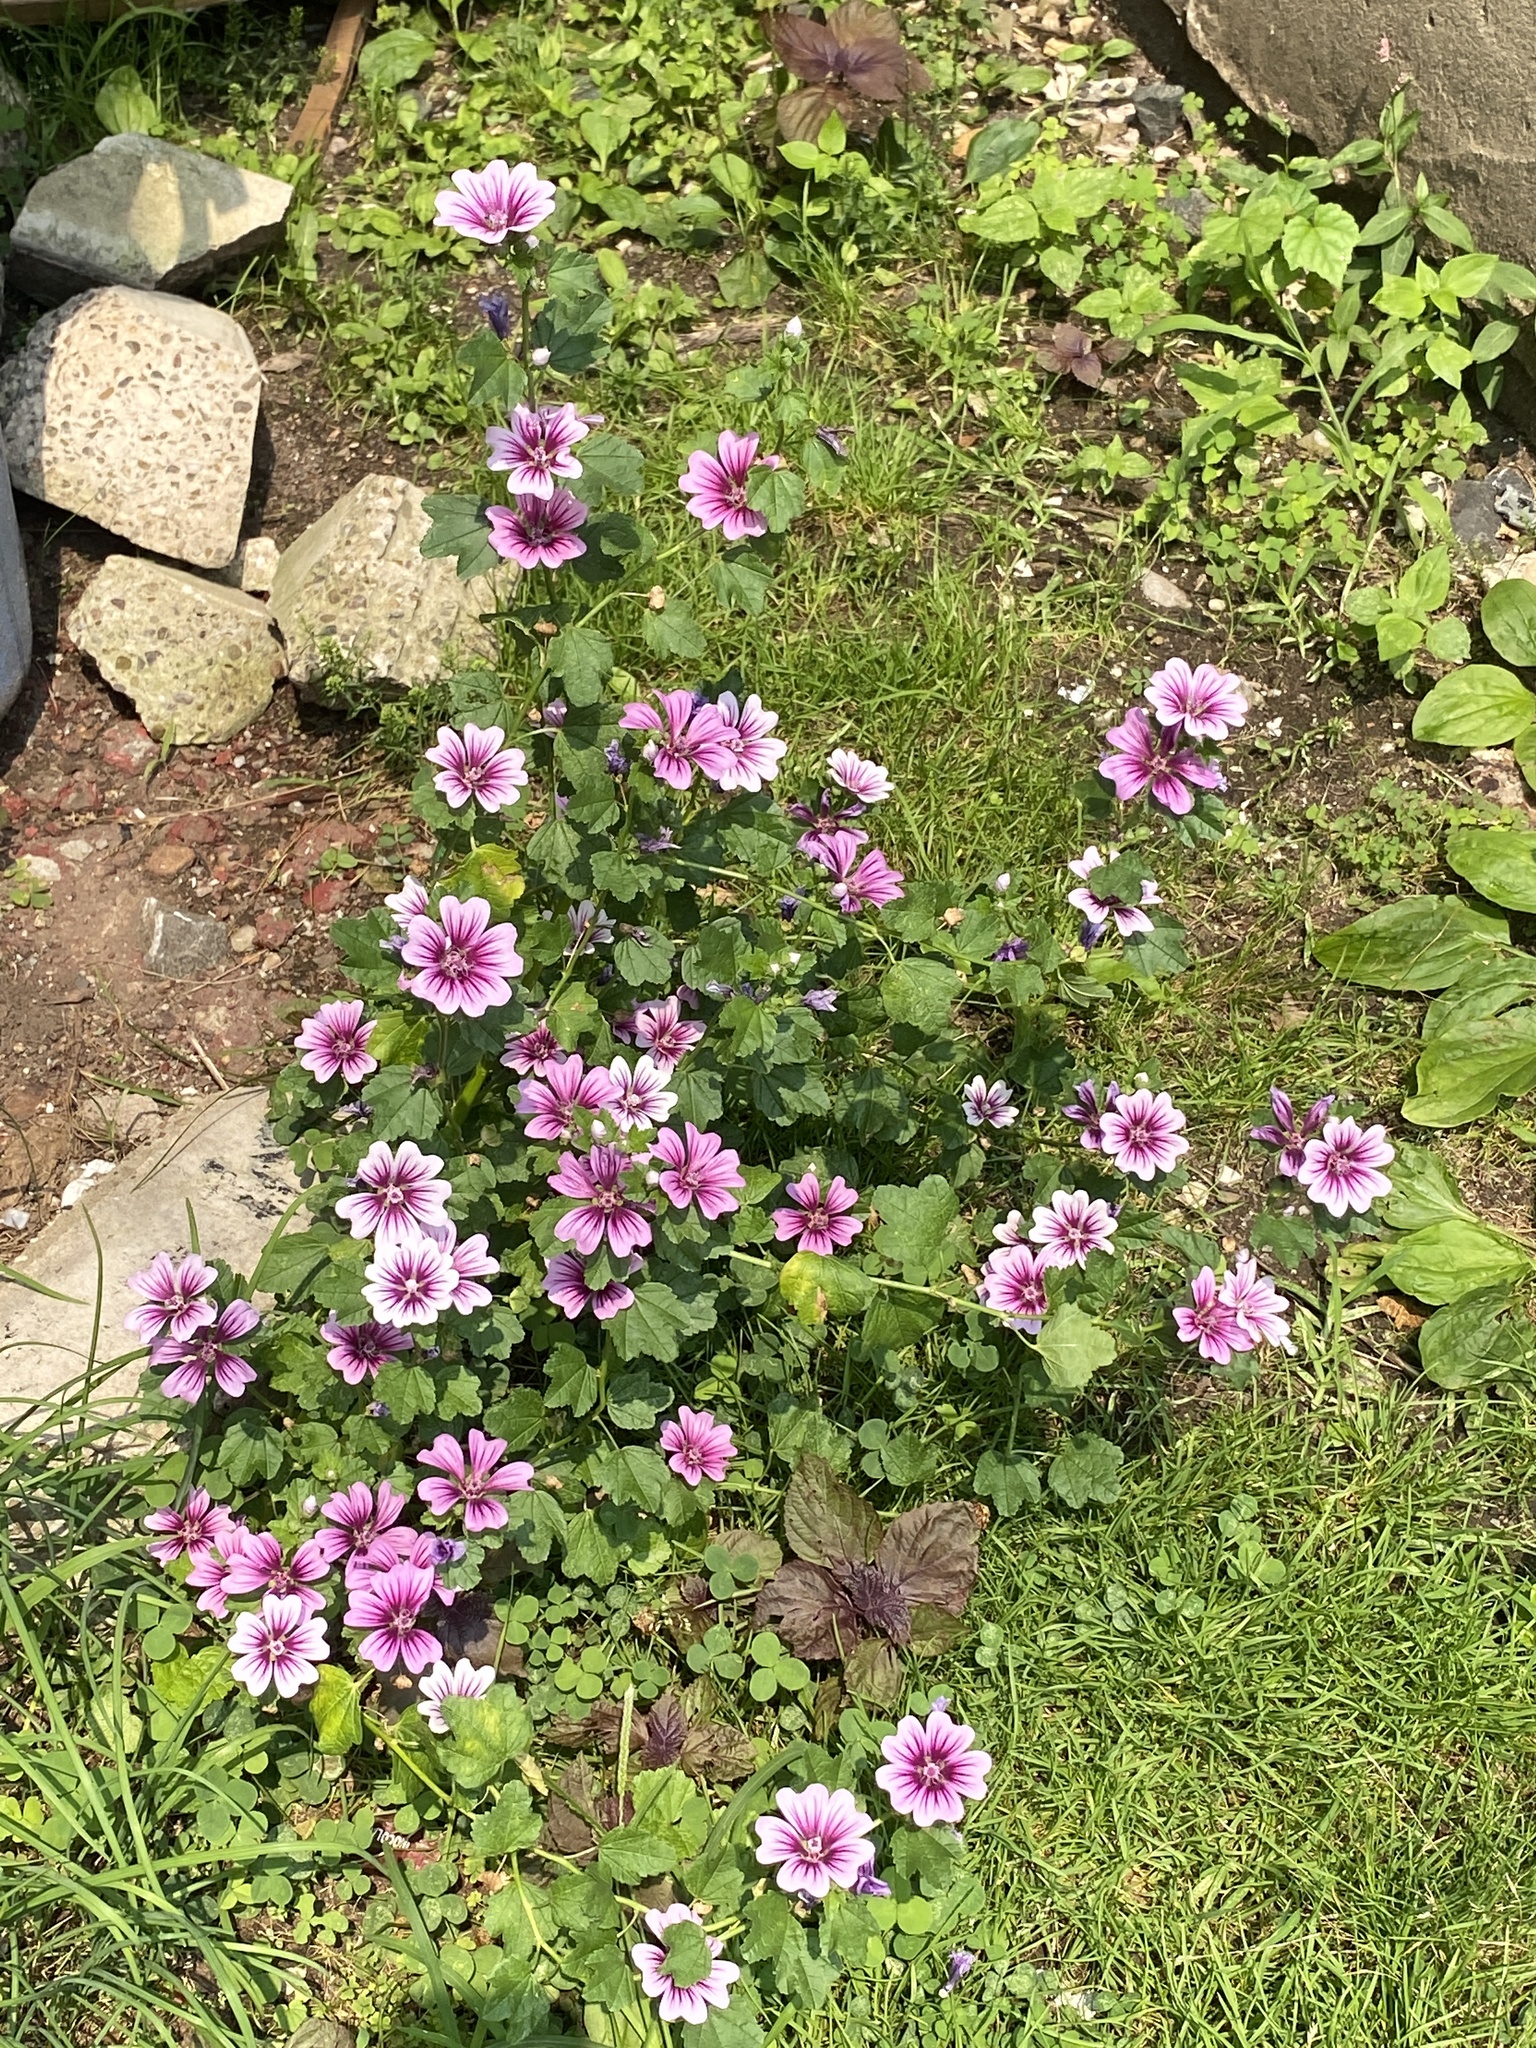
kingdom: Plantae
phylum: Tracheophyta
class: Magnoliopsida
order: Malvales
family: Malvaceae
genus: Malva
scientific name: Malva sylvestris
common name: Common mallow
